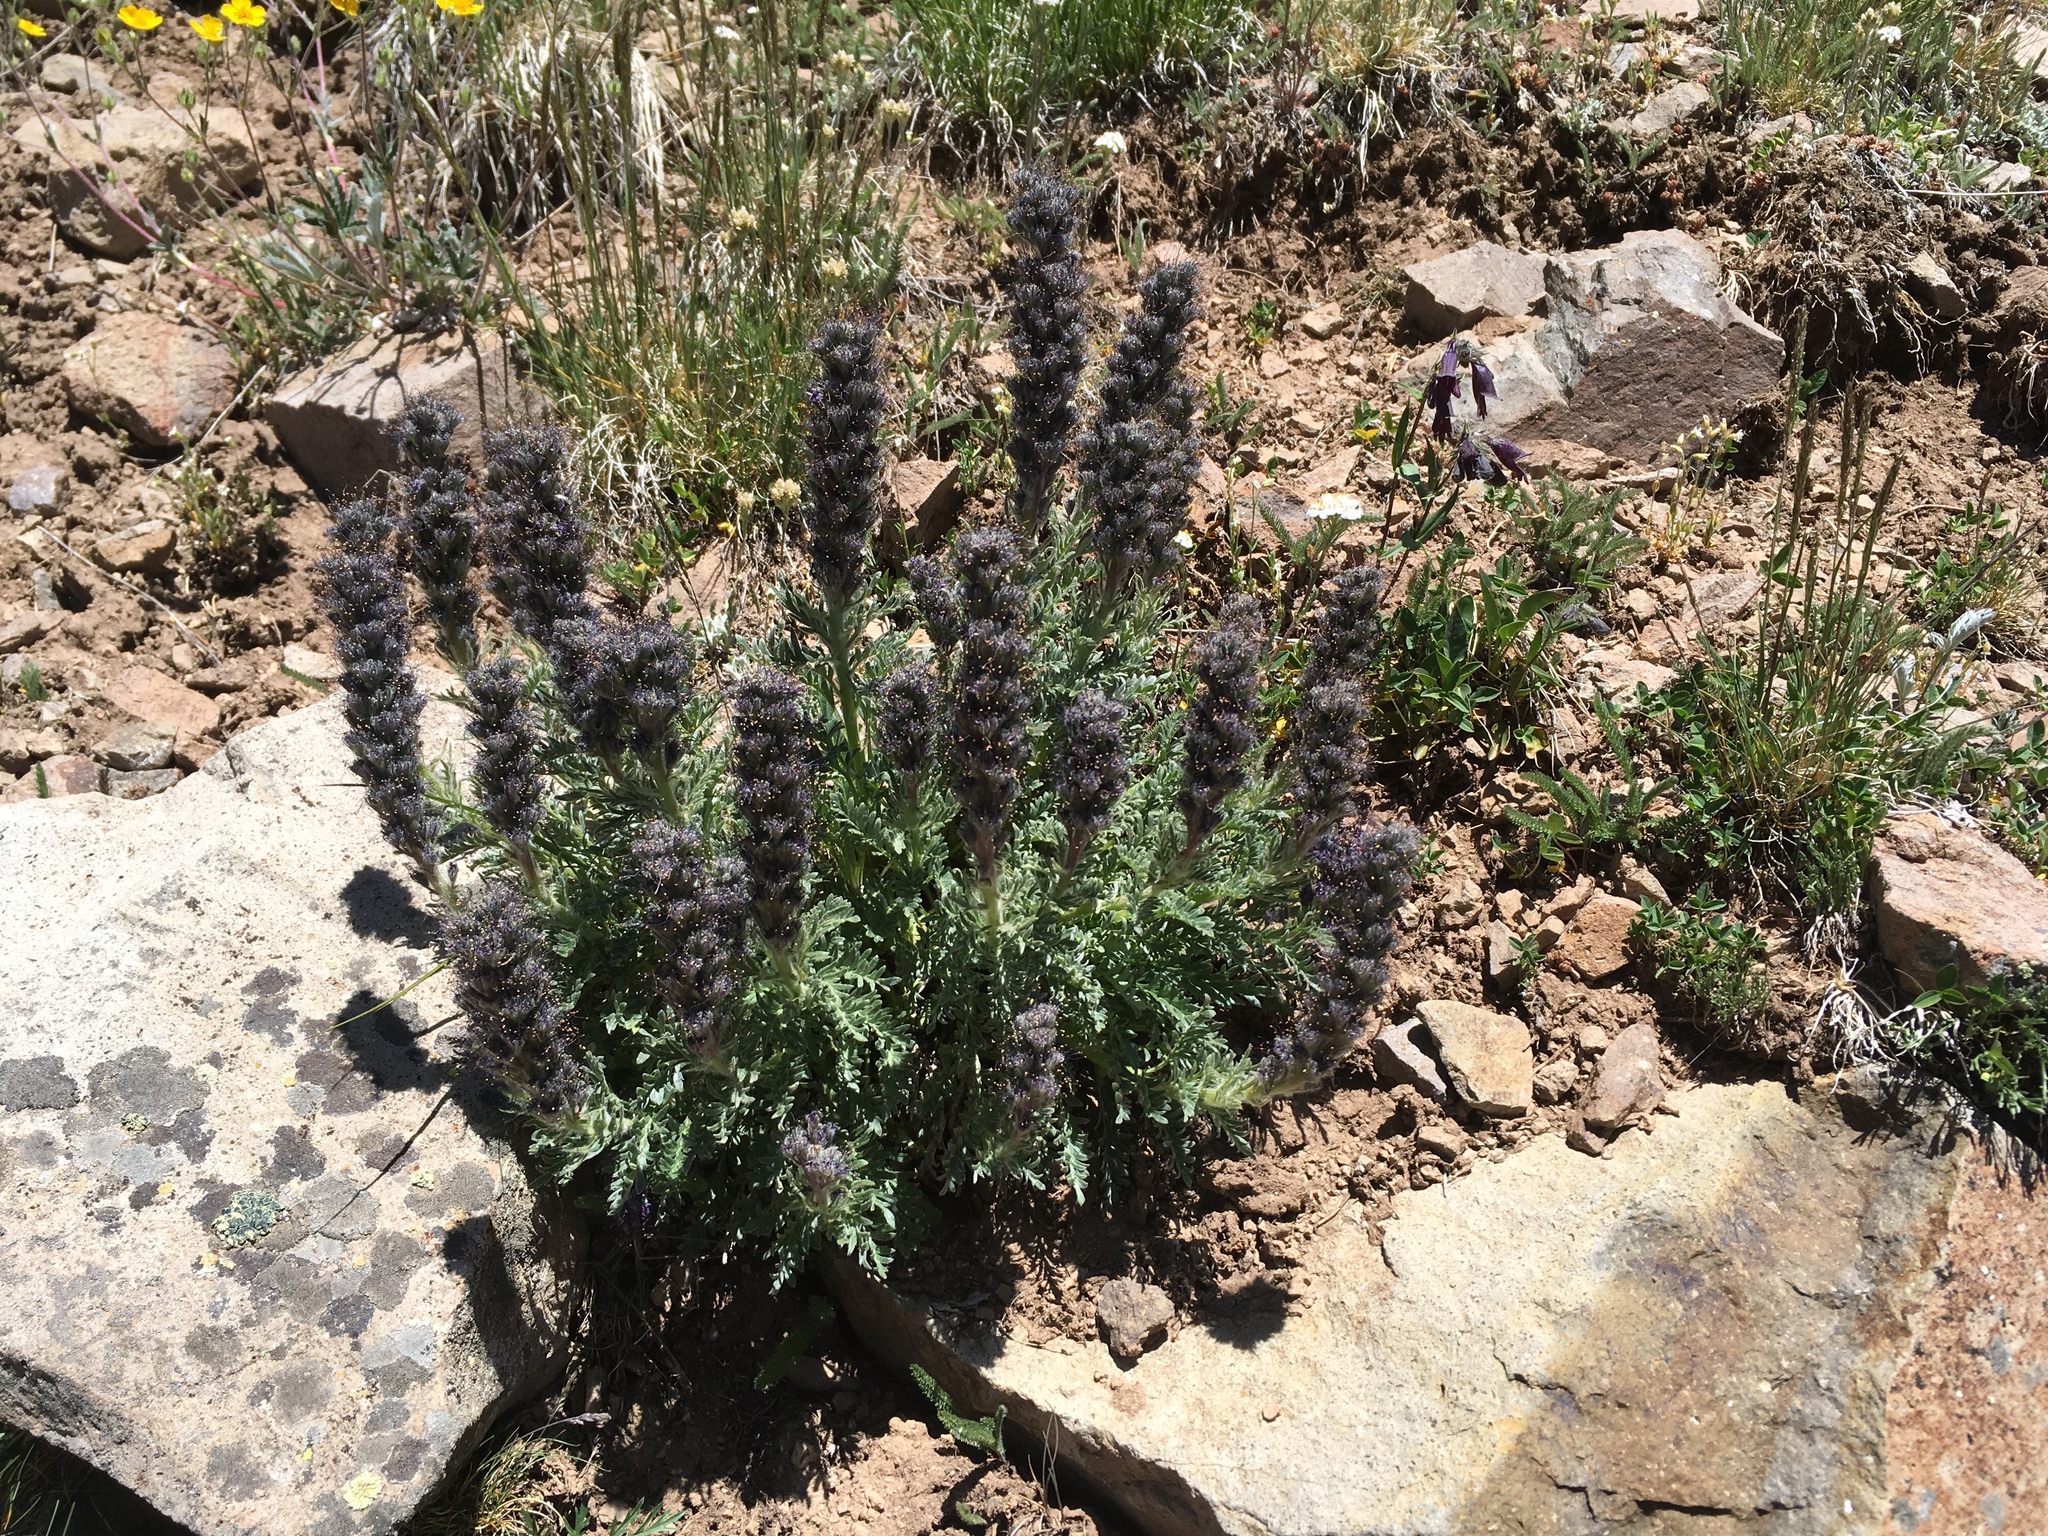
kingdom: Plantae
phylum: Tracheophyta
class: Magnoliopsida
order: Boraginales
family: Hydrophyllaceae
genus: Phacelia
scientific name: Phacelia sericea
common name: Silky phacelia
